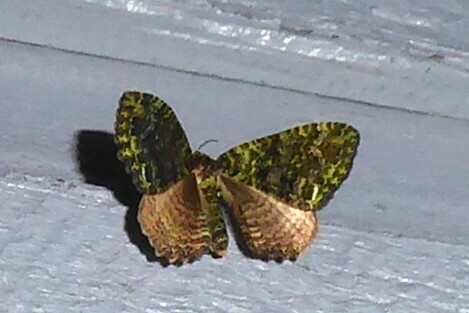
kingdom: Animalia
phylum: Arthropoda
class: Insecta
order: Lepidoptera
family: Geometridae
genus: Austrocidaria
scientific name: Austrocidaria similata
